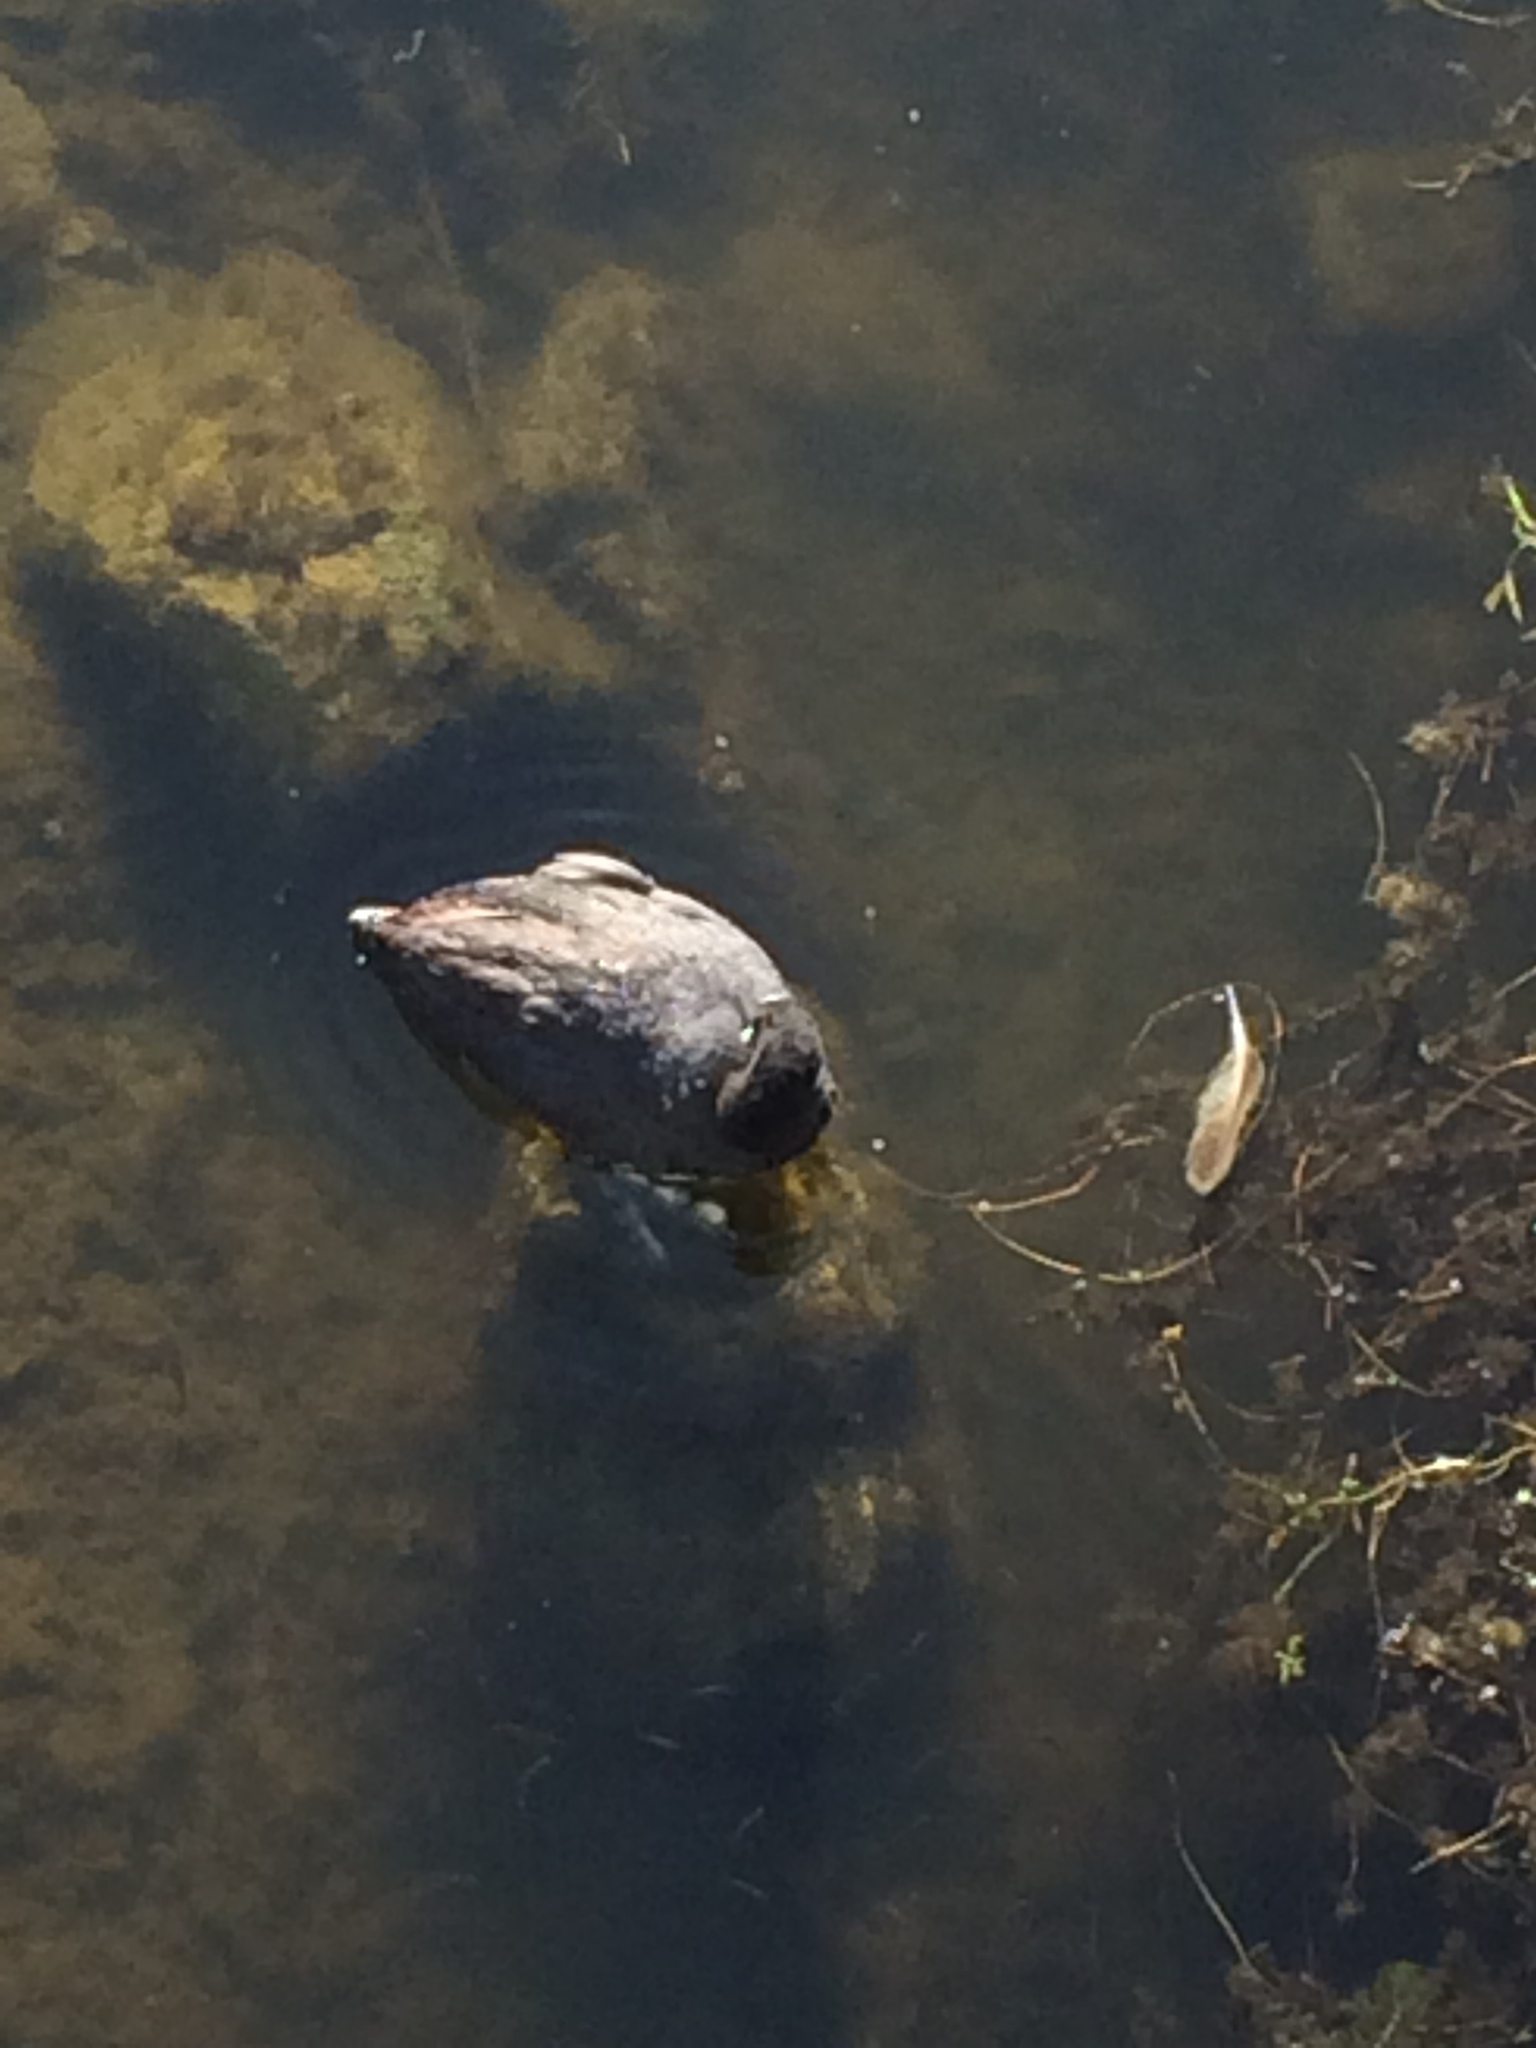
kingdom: Animalia
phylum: Chordata
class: Aves
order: Gruiformes
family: Rallidae
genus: Fulica
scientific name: Fulica atra
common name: Eurasian coot
